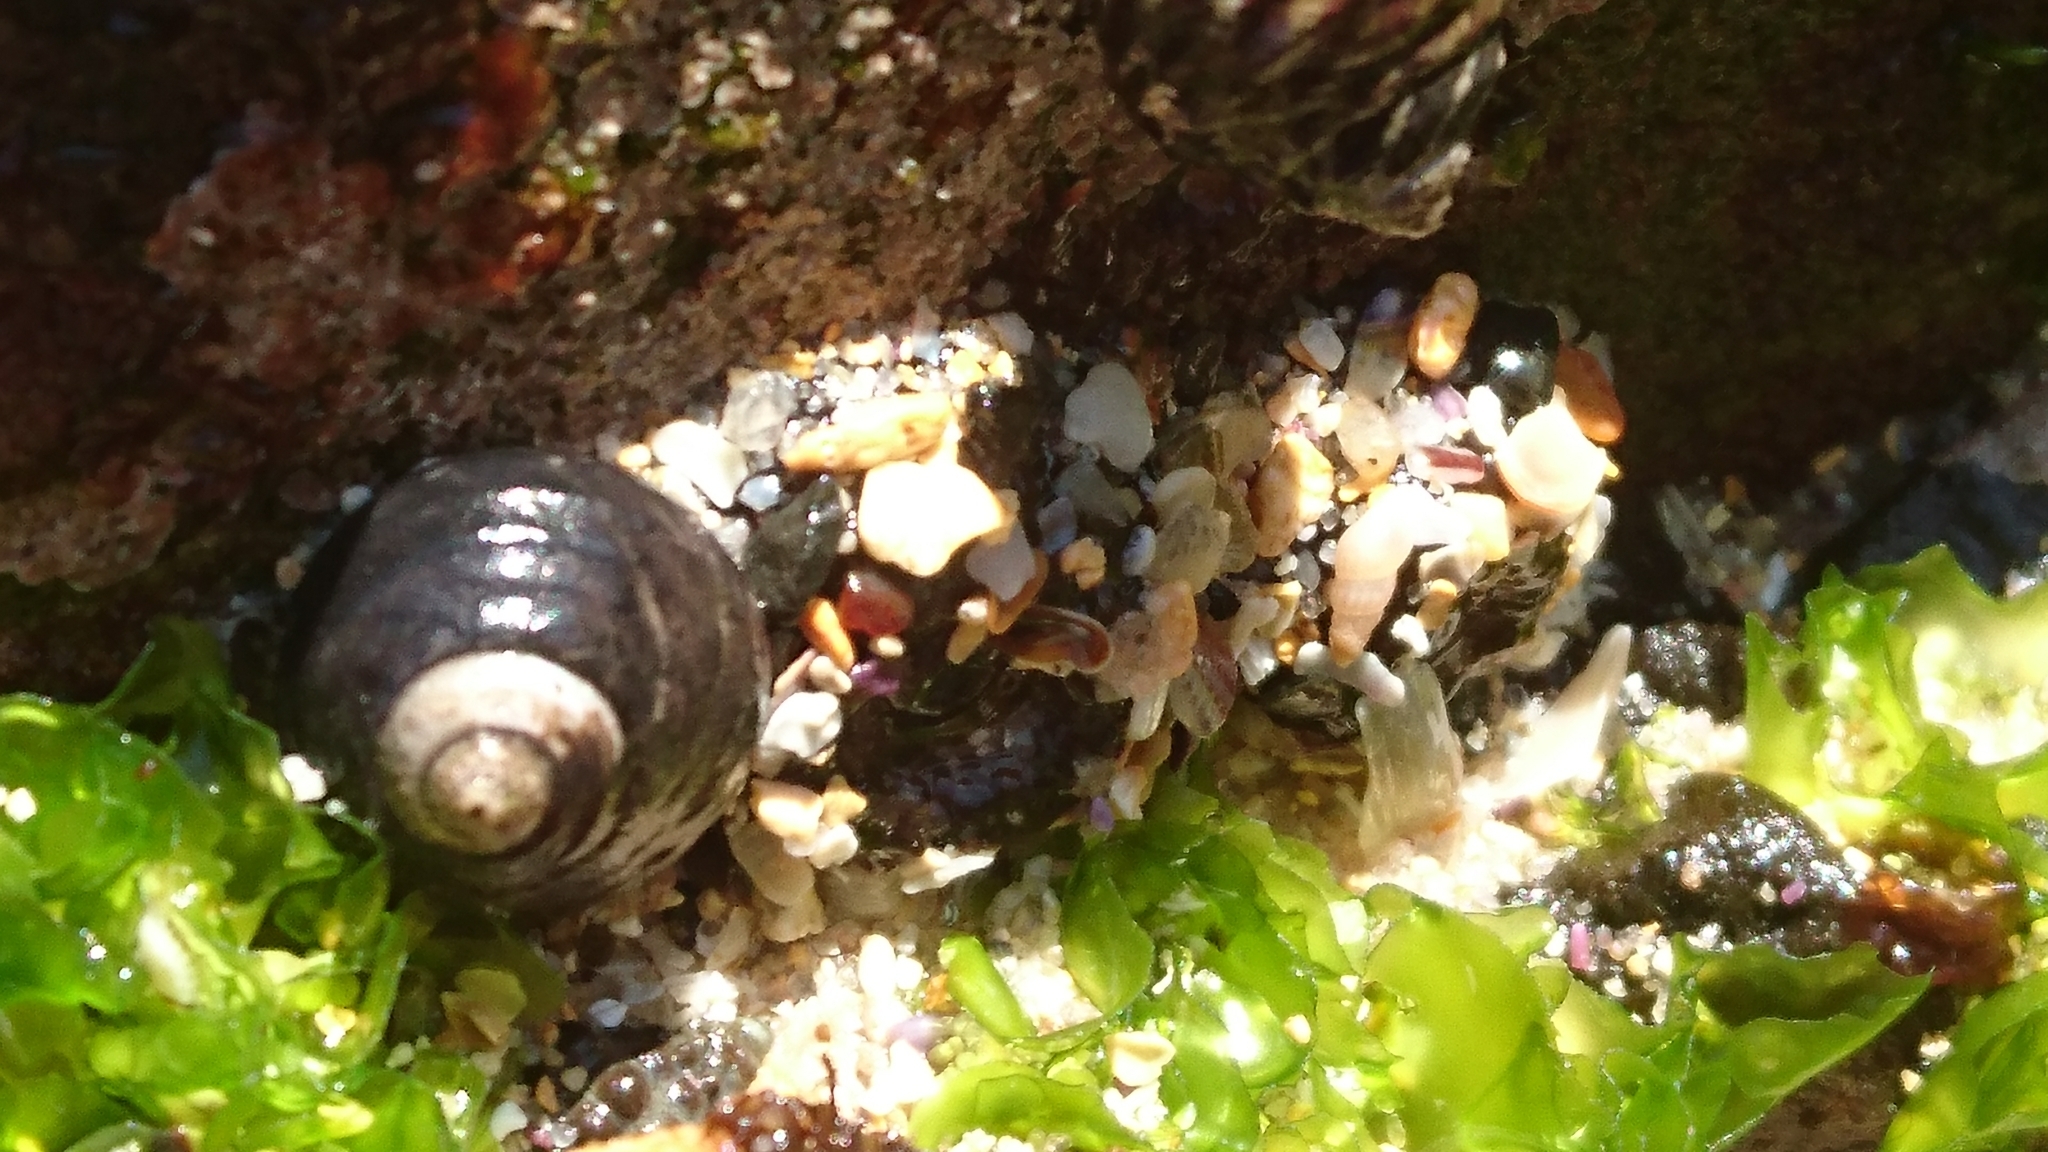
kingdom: Animalia
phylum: Mollusca
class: Gastropoda
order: Trochida
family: Trochidae
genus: Austrocochlea
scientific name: Austrocochlea constricta
